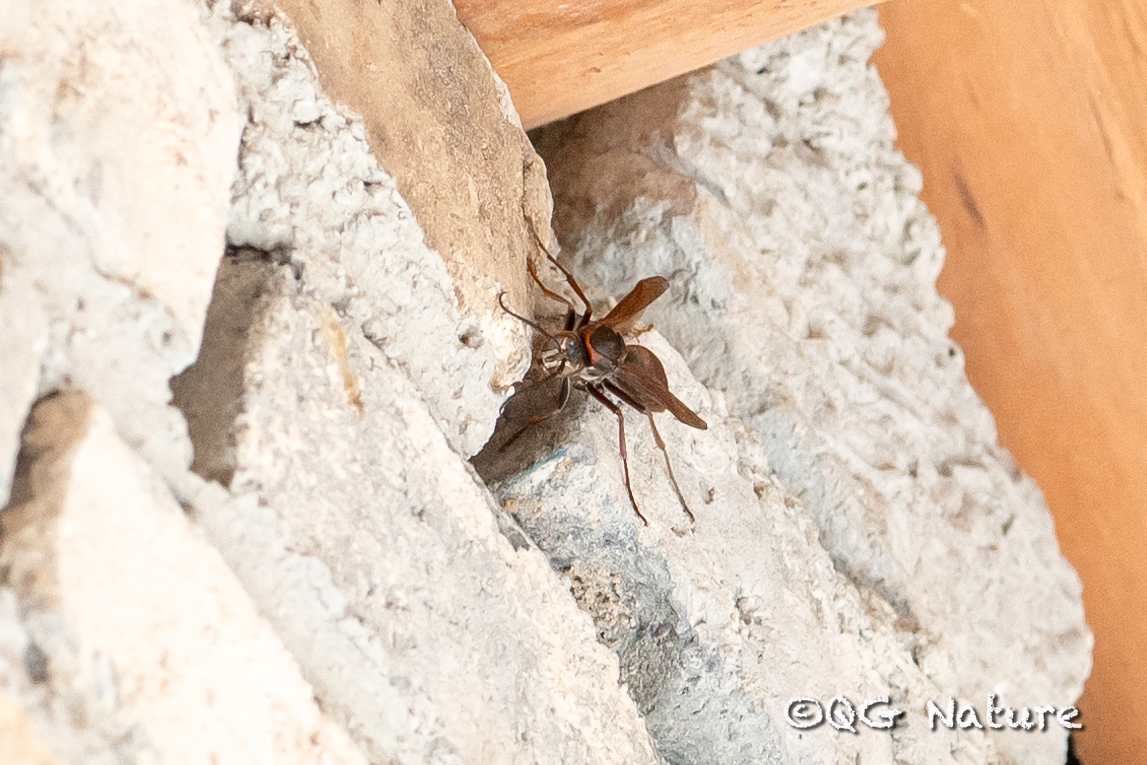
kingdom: Animalia
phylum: Arthropoda
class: Insecta
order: Hymenoptera
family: Eumenidae
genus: Polistes
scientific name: Polistes tenebricosus
